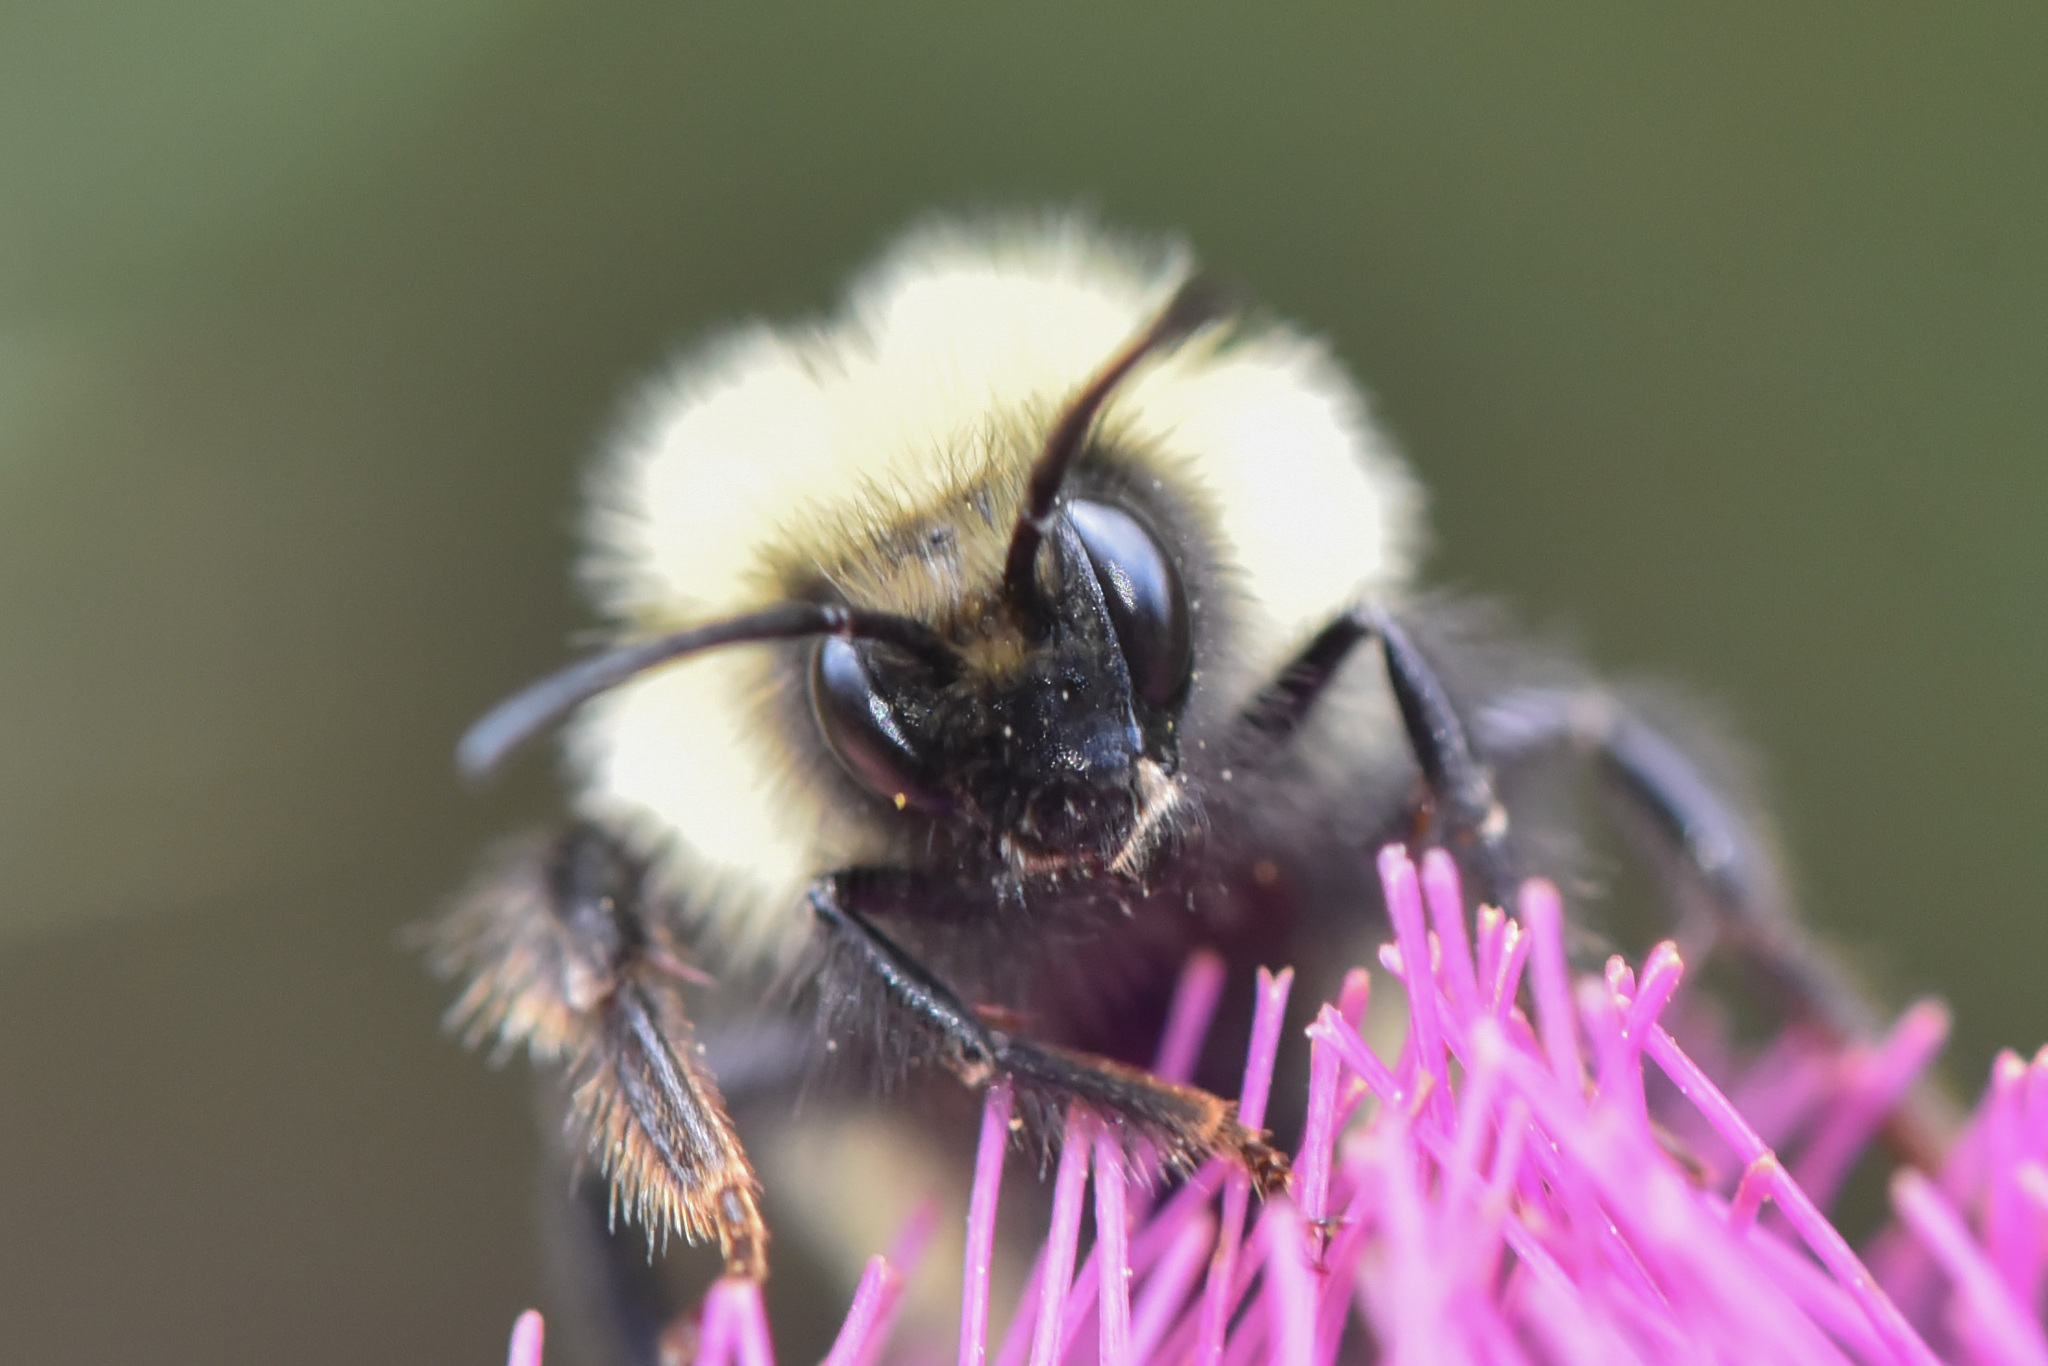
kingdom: Animalia
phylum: Arthropoda
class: Insecta
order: Hymenoptera
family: Apidae
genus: Bombus
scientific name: Bombus flavifrons
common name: Yellow head bumble bee
